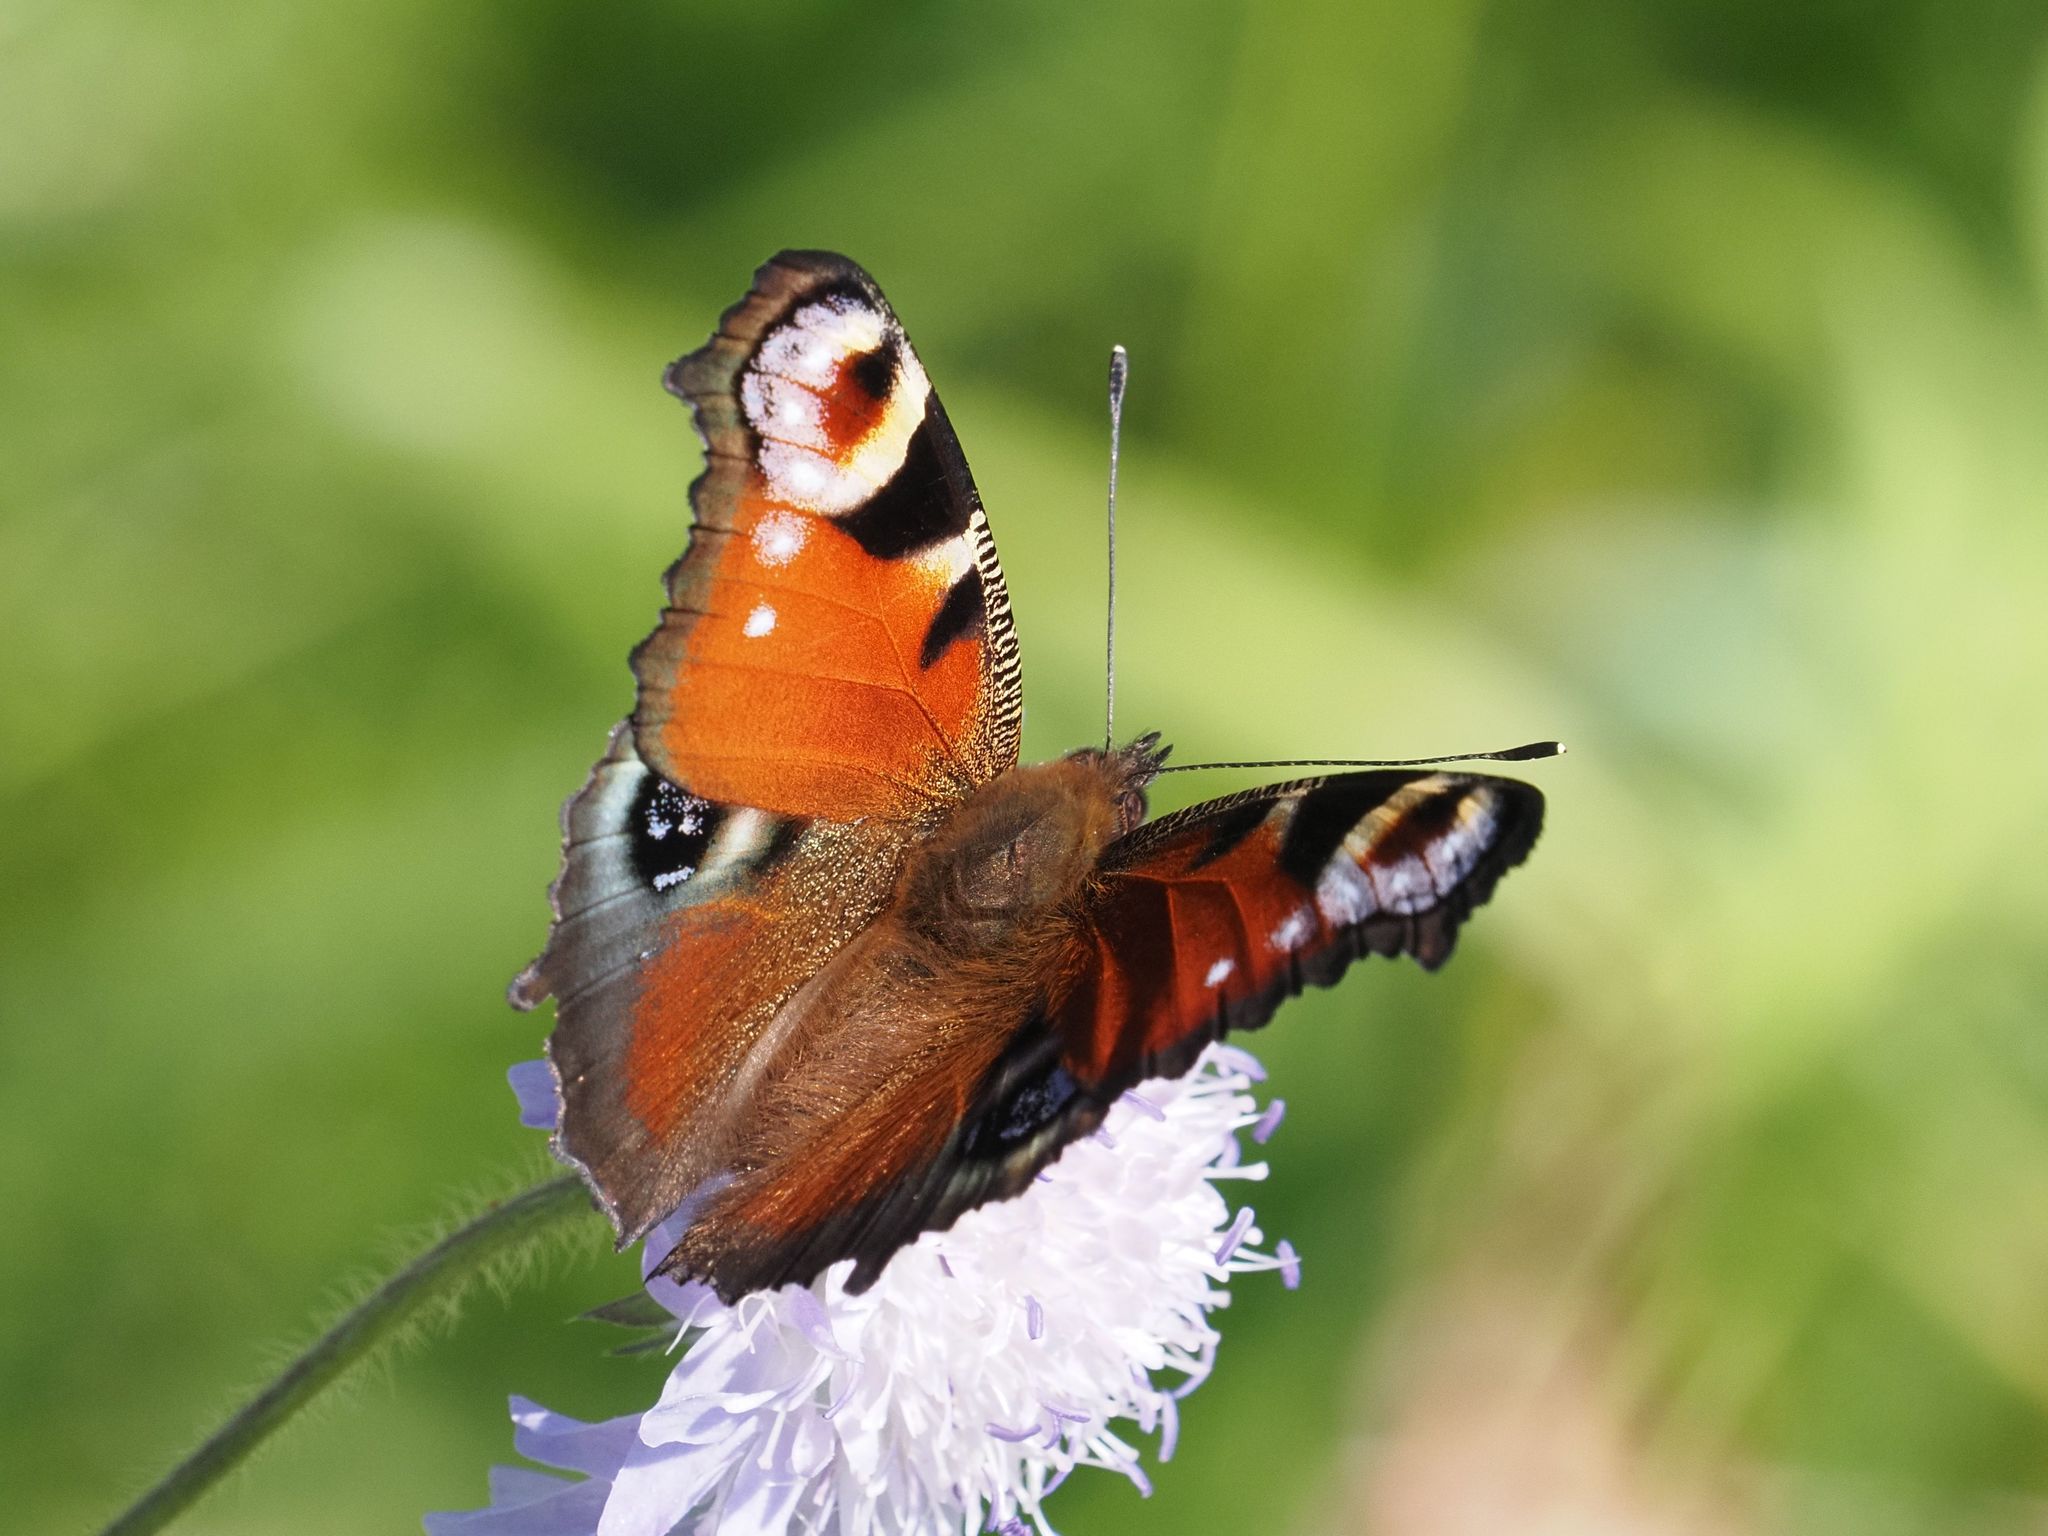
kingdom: Animalia
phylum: Arthropoda
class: Insecta
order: Lepidoptera
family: Nymphalidae
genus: Aglais
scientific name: Aglais io
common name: Peacock
